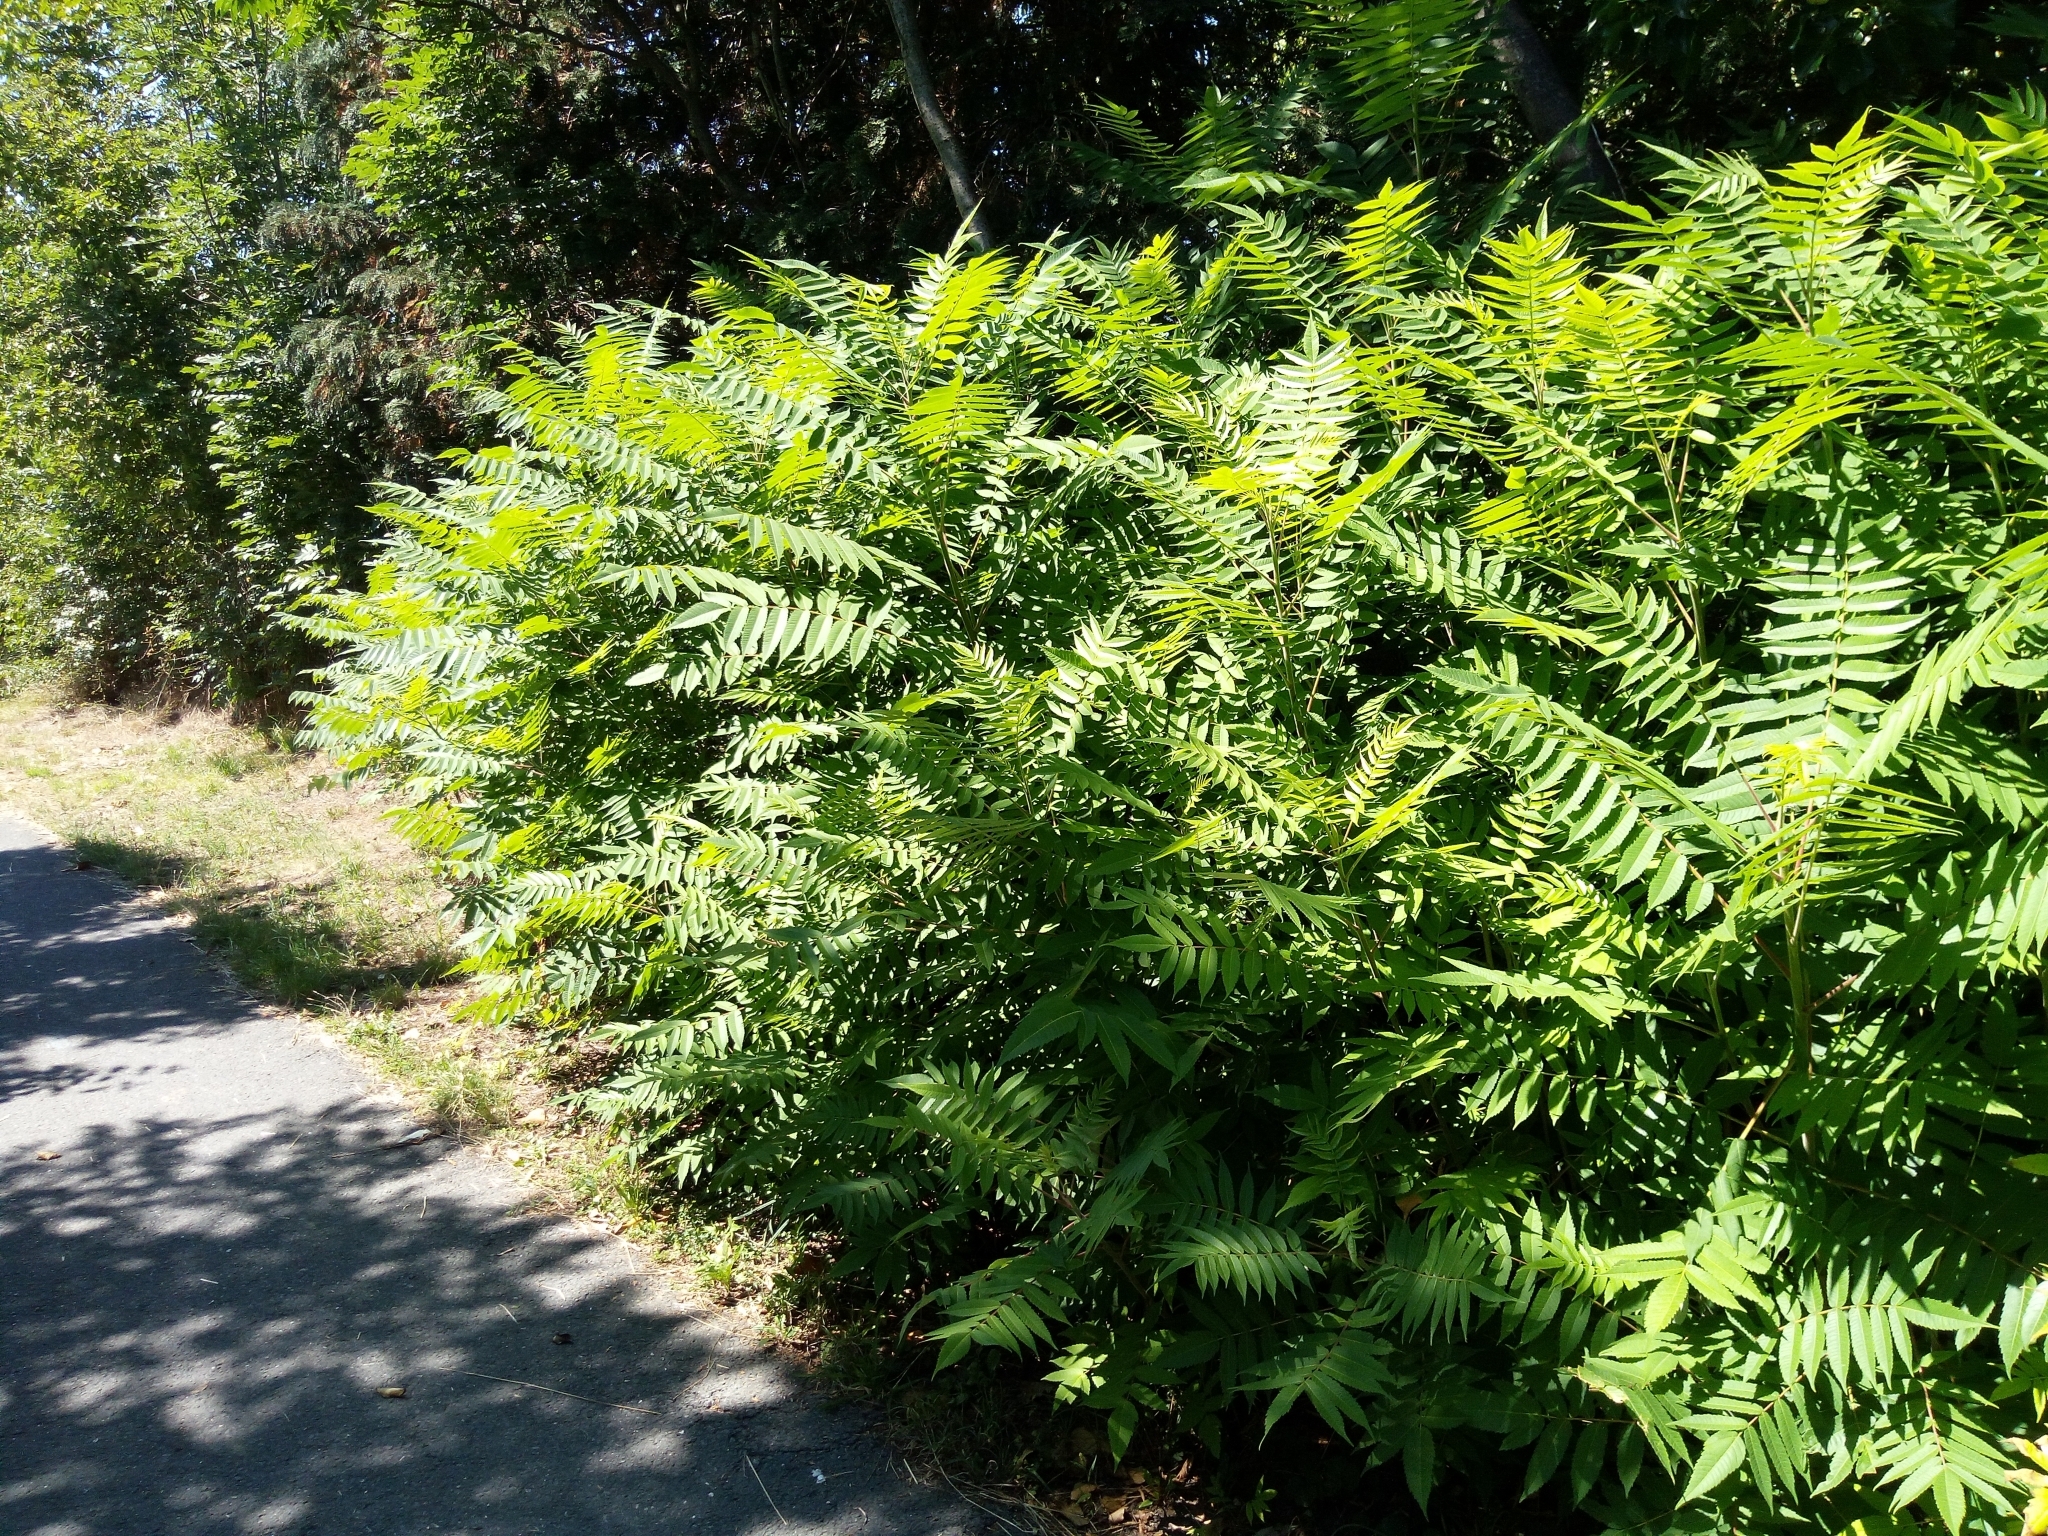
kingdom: Plantae
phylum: Tracheophyta
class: Magnoliopsida
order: Sapindales
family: Anacardiaceae
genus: Rhus
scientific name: Rhus typhina
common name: Staghorn sumac
